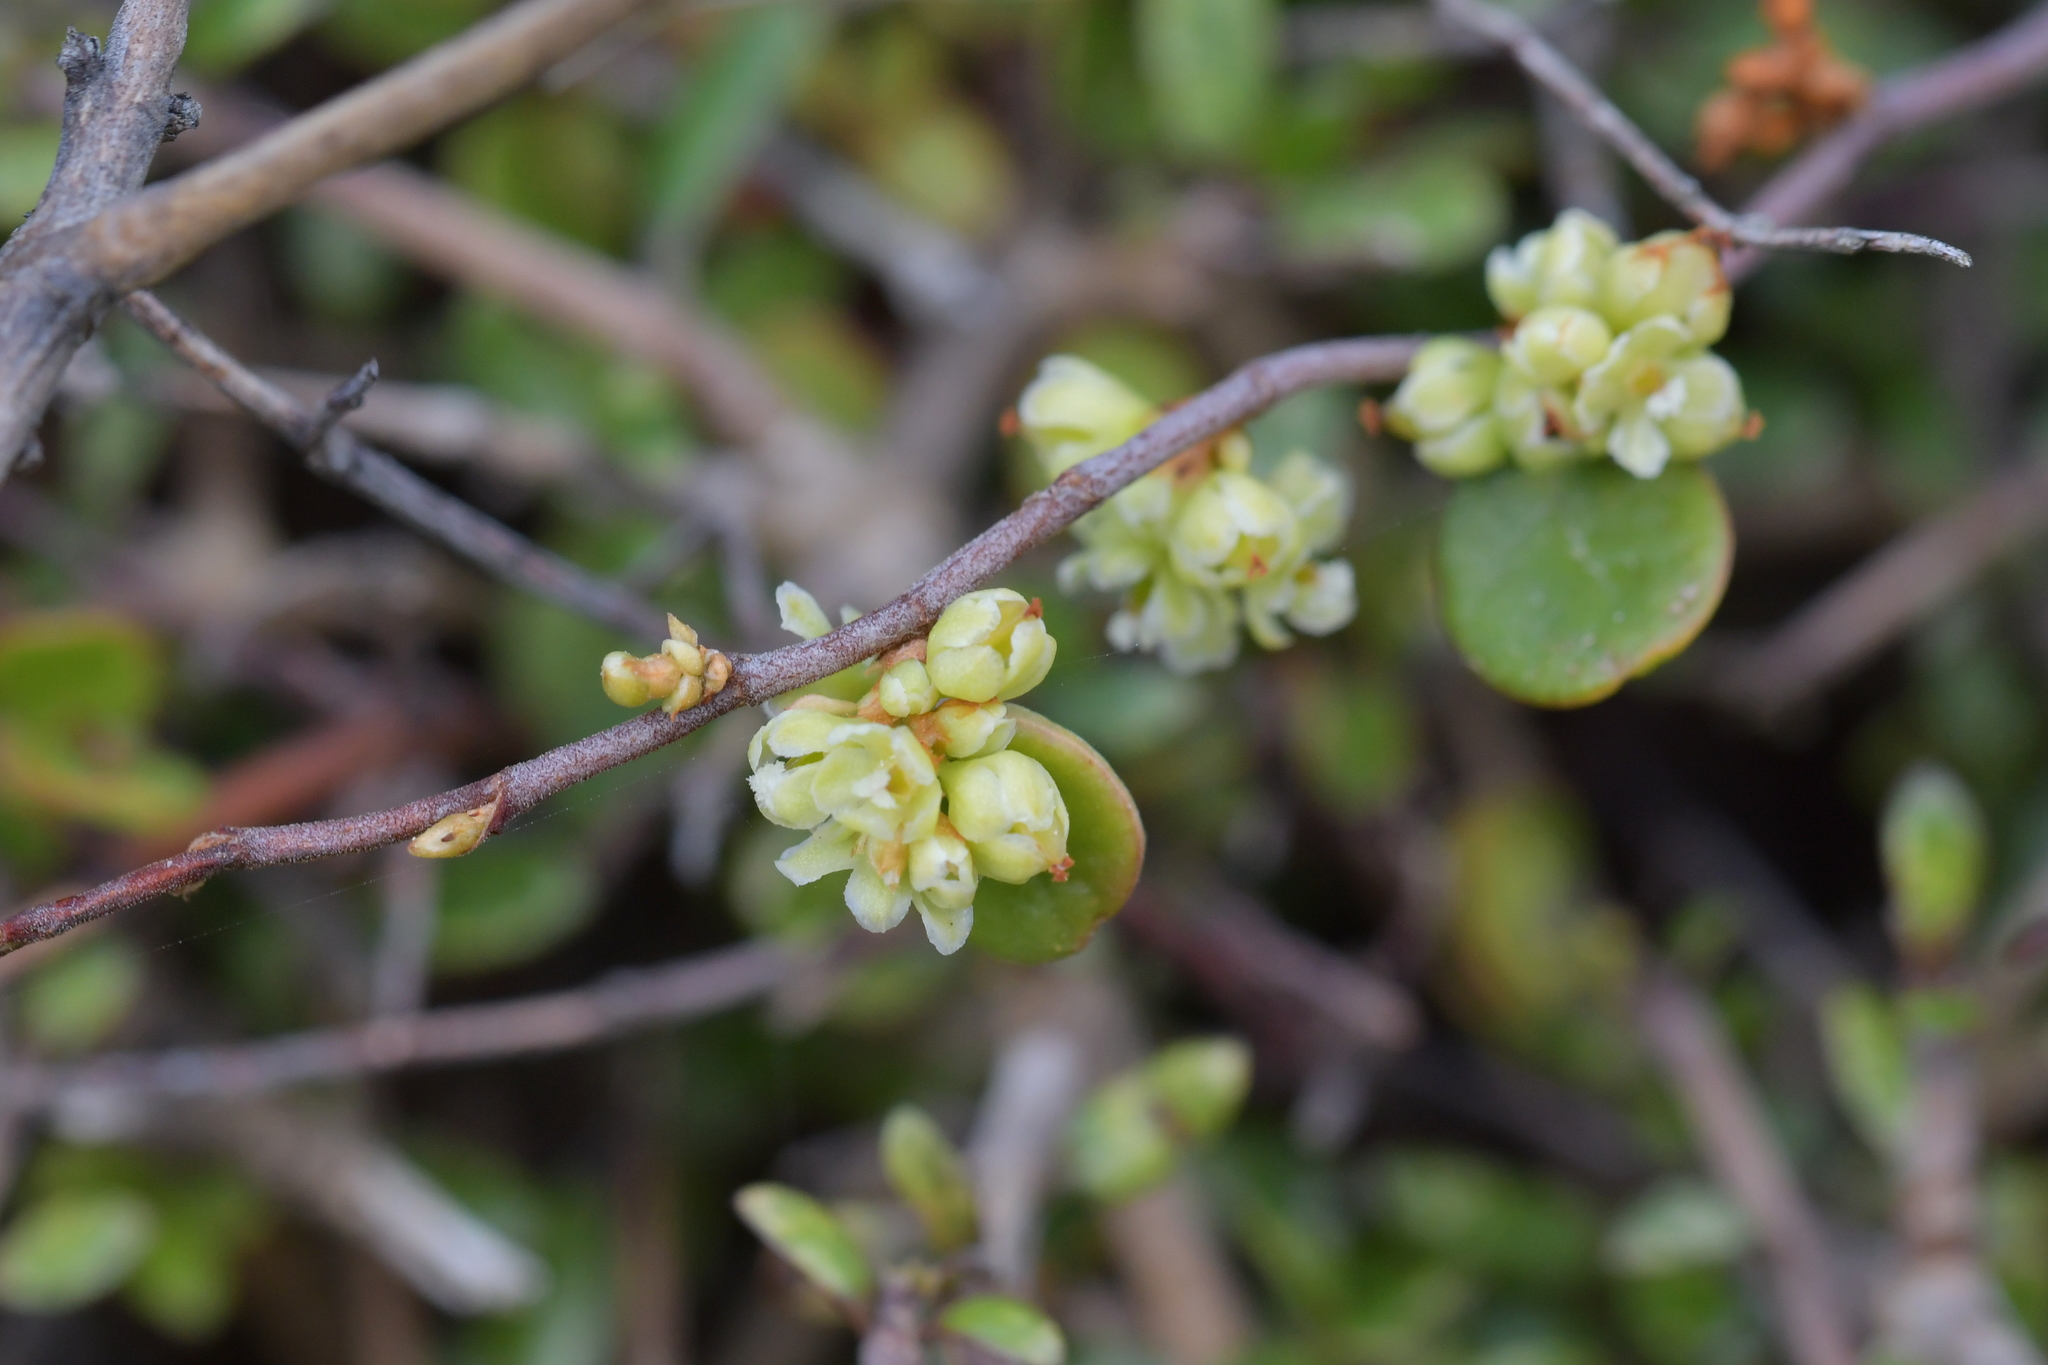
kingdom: Plantae
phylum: Tracheophyta
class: Magnoliopsida
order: Caryophyllales
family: Polygonaceae
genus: Muehlenbeckia
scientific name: Muehlenbeckia complexa
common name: Wireplant
